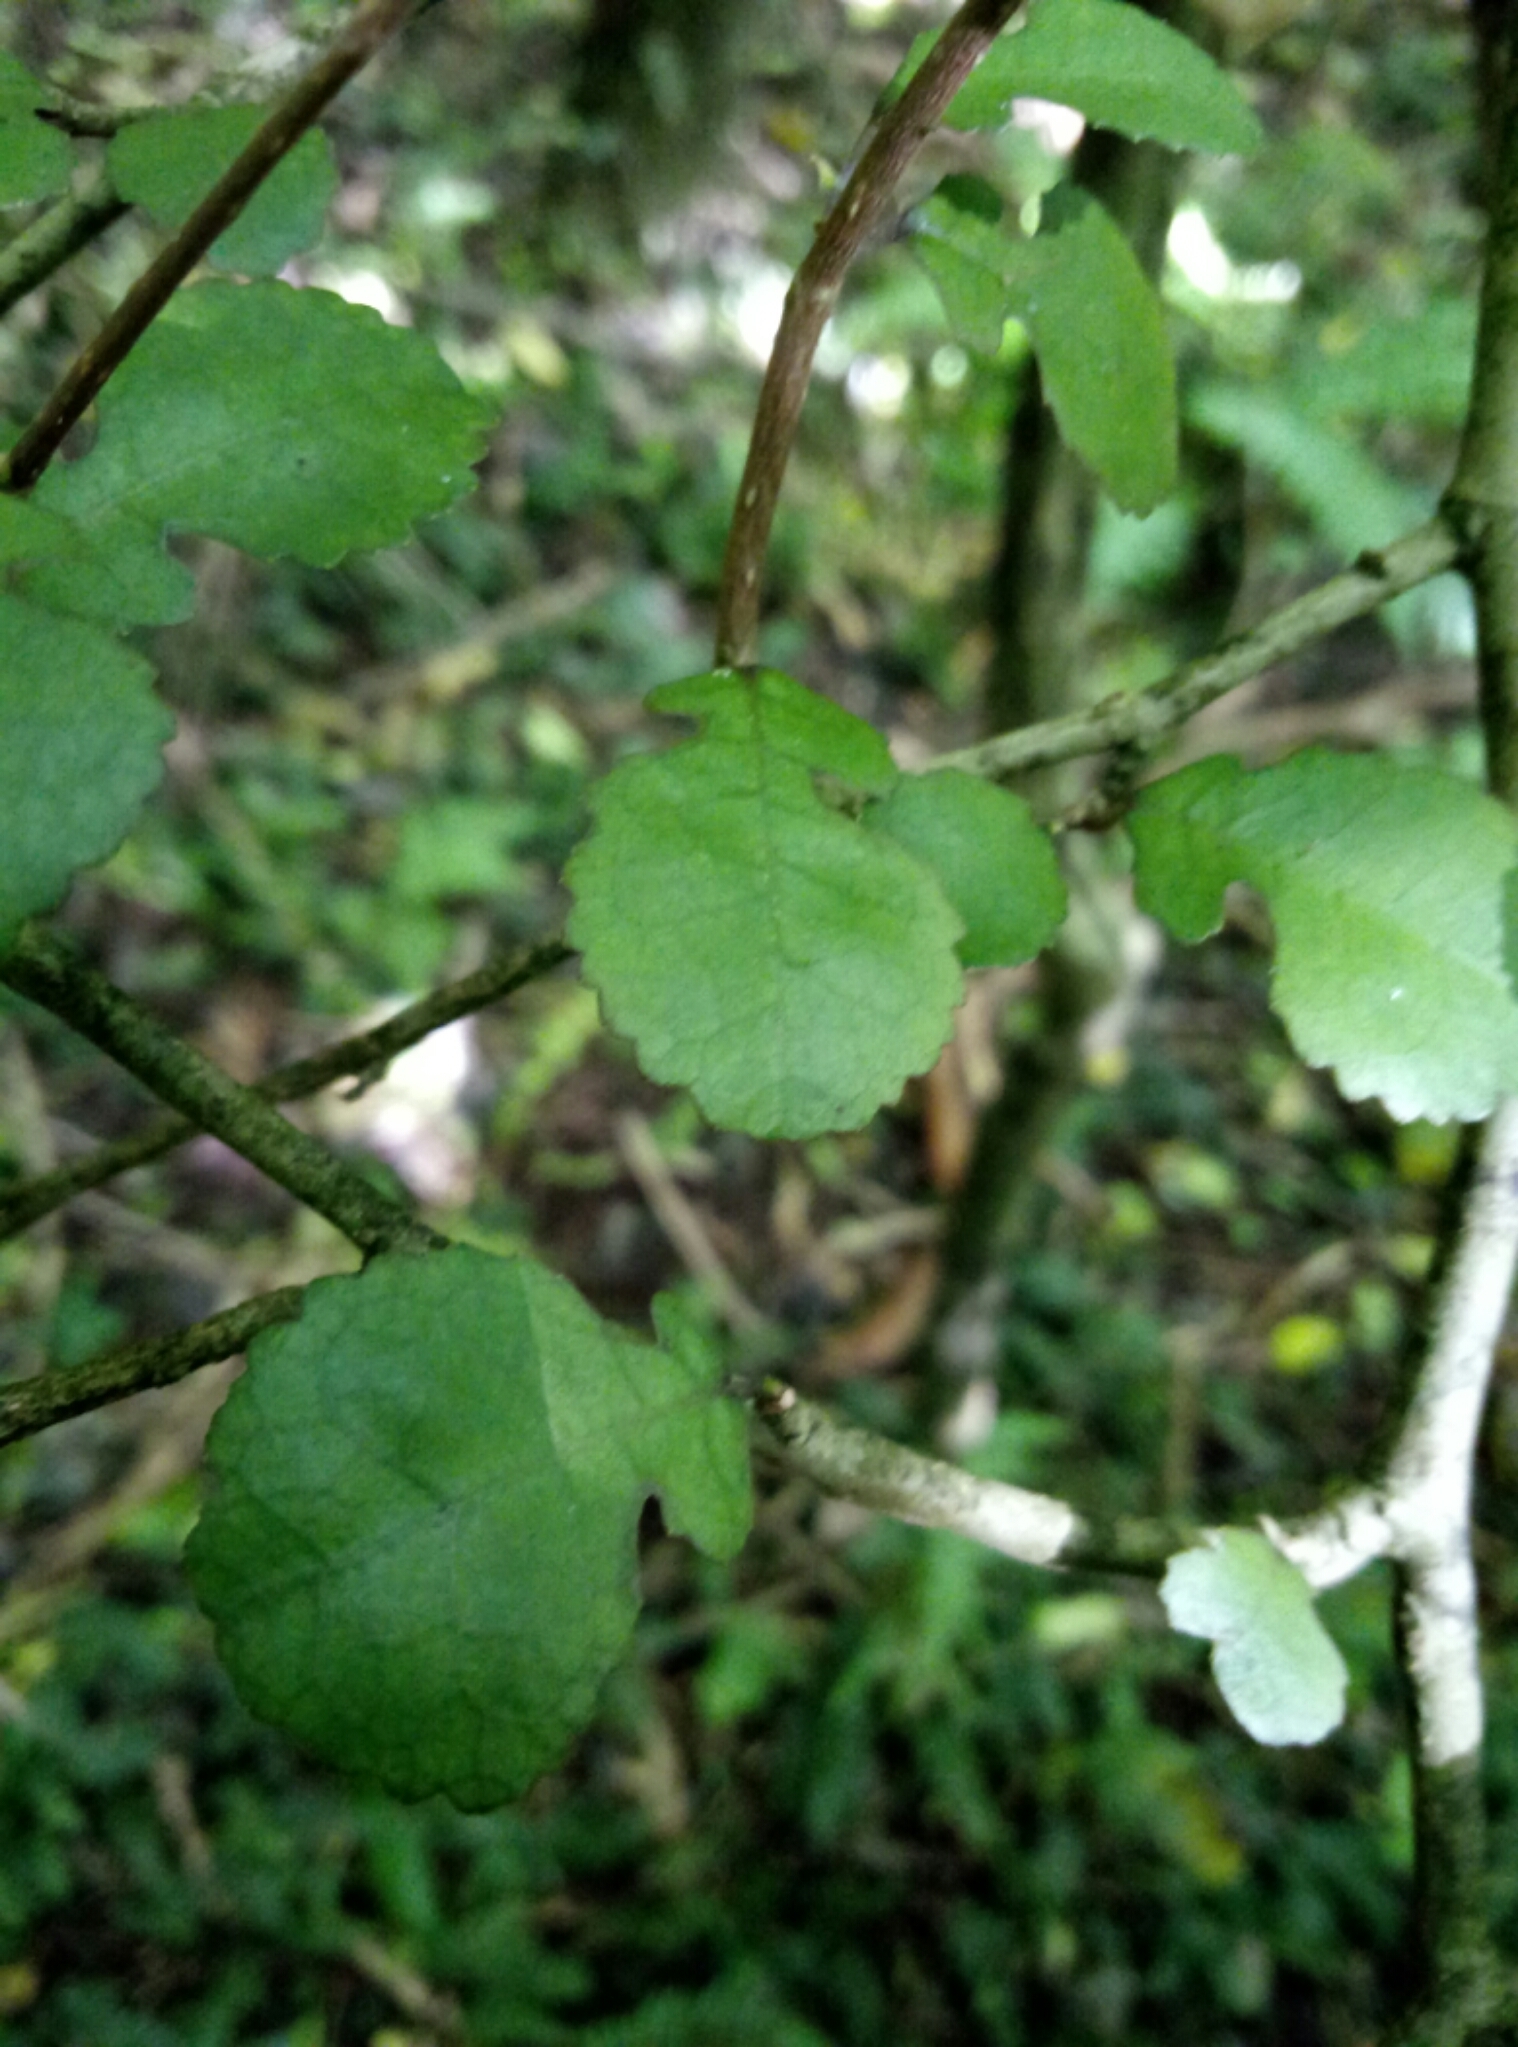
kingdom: Plantae
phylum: Tracheophyta
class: Magnoliopsida
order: Rosales
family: Moraceae
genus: Paratrophis
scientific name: Paratrophis microphylla
